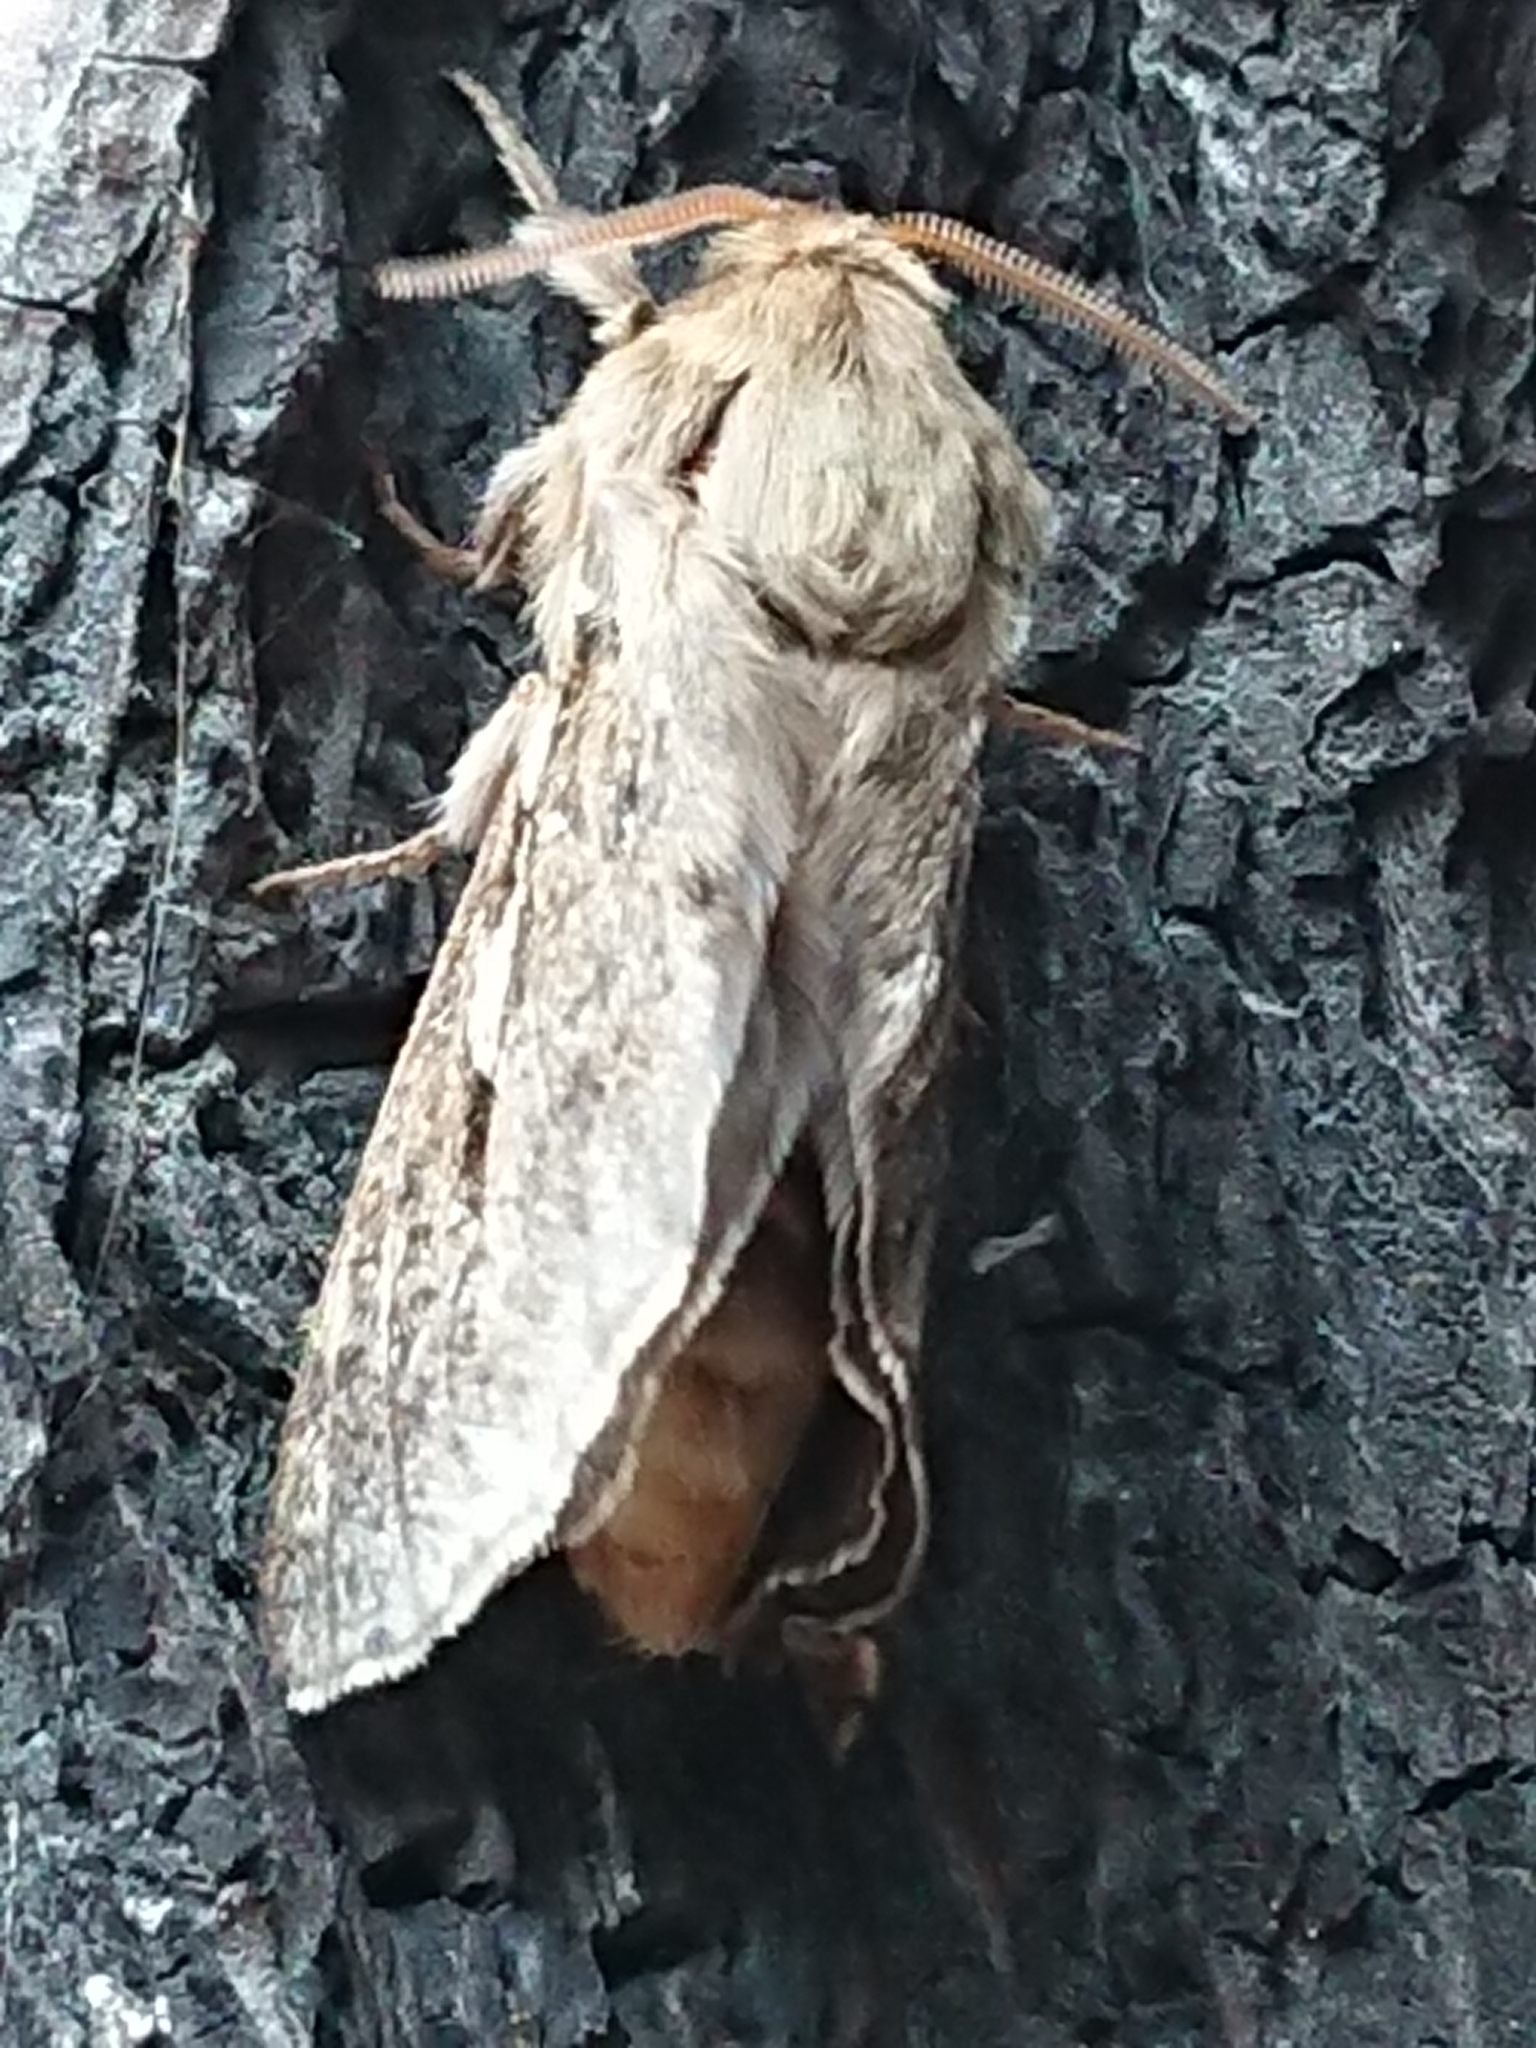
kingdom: Animalia
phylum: Arthropoda
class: Insecta
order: Lepidoptera
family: Hepialidae
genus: Wiseana
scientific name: Wiseana copularis
